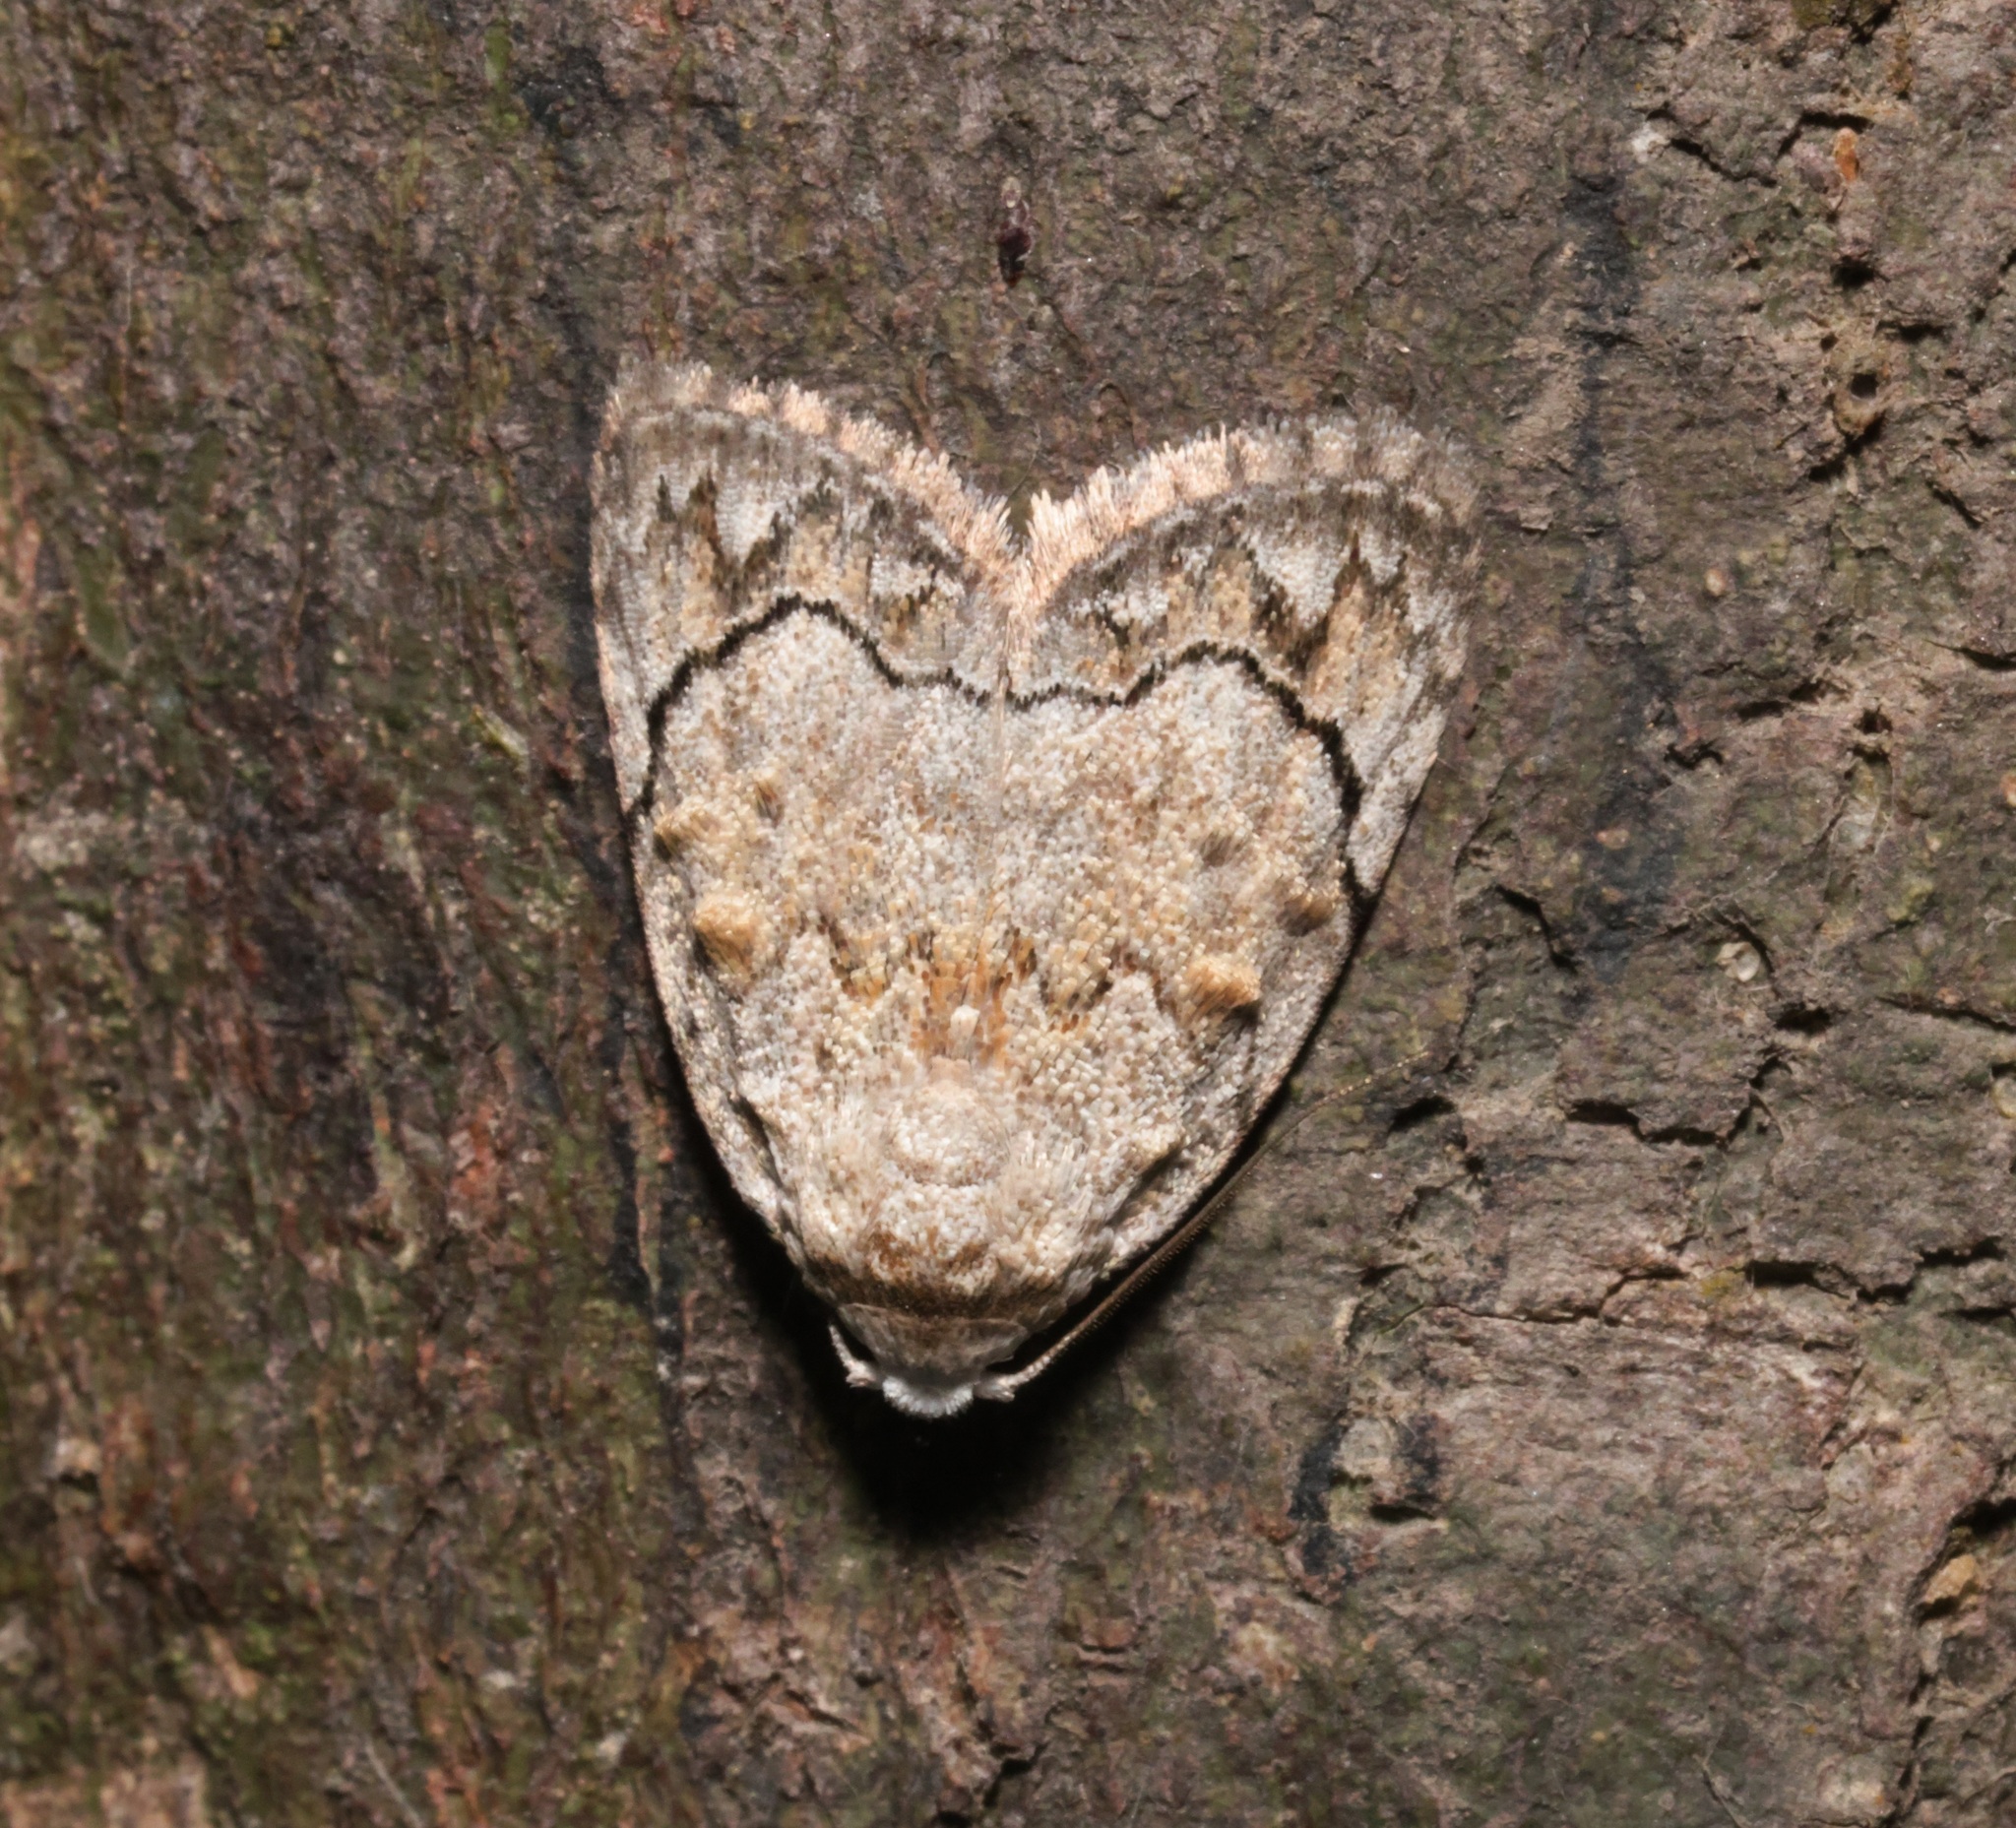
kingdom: Animalia
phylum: Arthropoda
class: Insecta
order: Lepidoptera
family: Nolidae
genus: Melanographia
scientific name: Melanographia flexilineata
